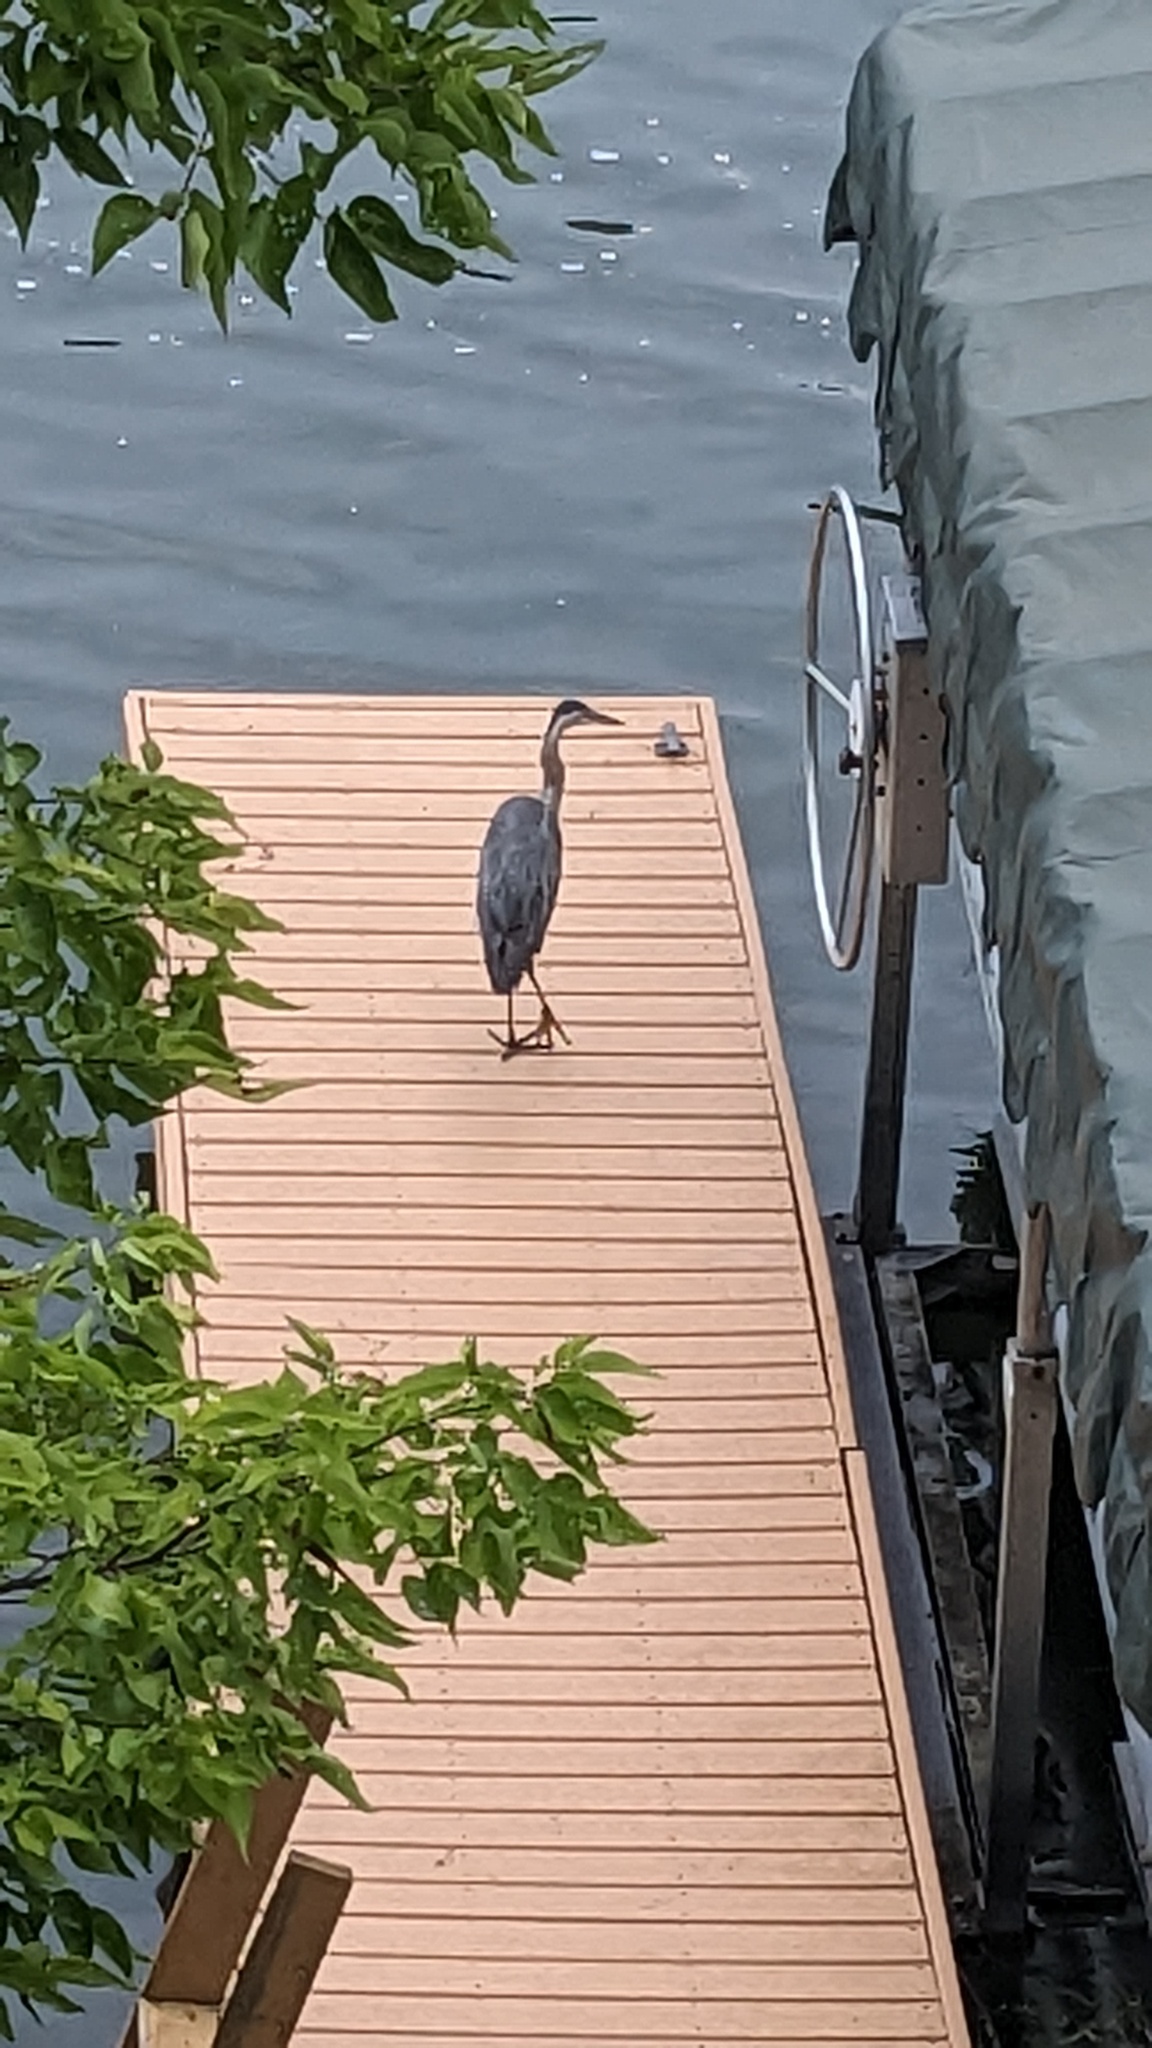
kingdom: Animalia
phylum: Chordata
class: Aves
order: Pelecaniformes
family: Ardeidae
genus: Ardea
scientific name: Ardea herodias
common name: Great blue heron
